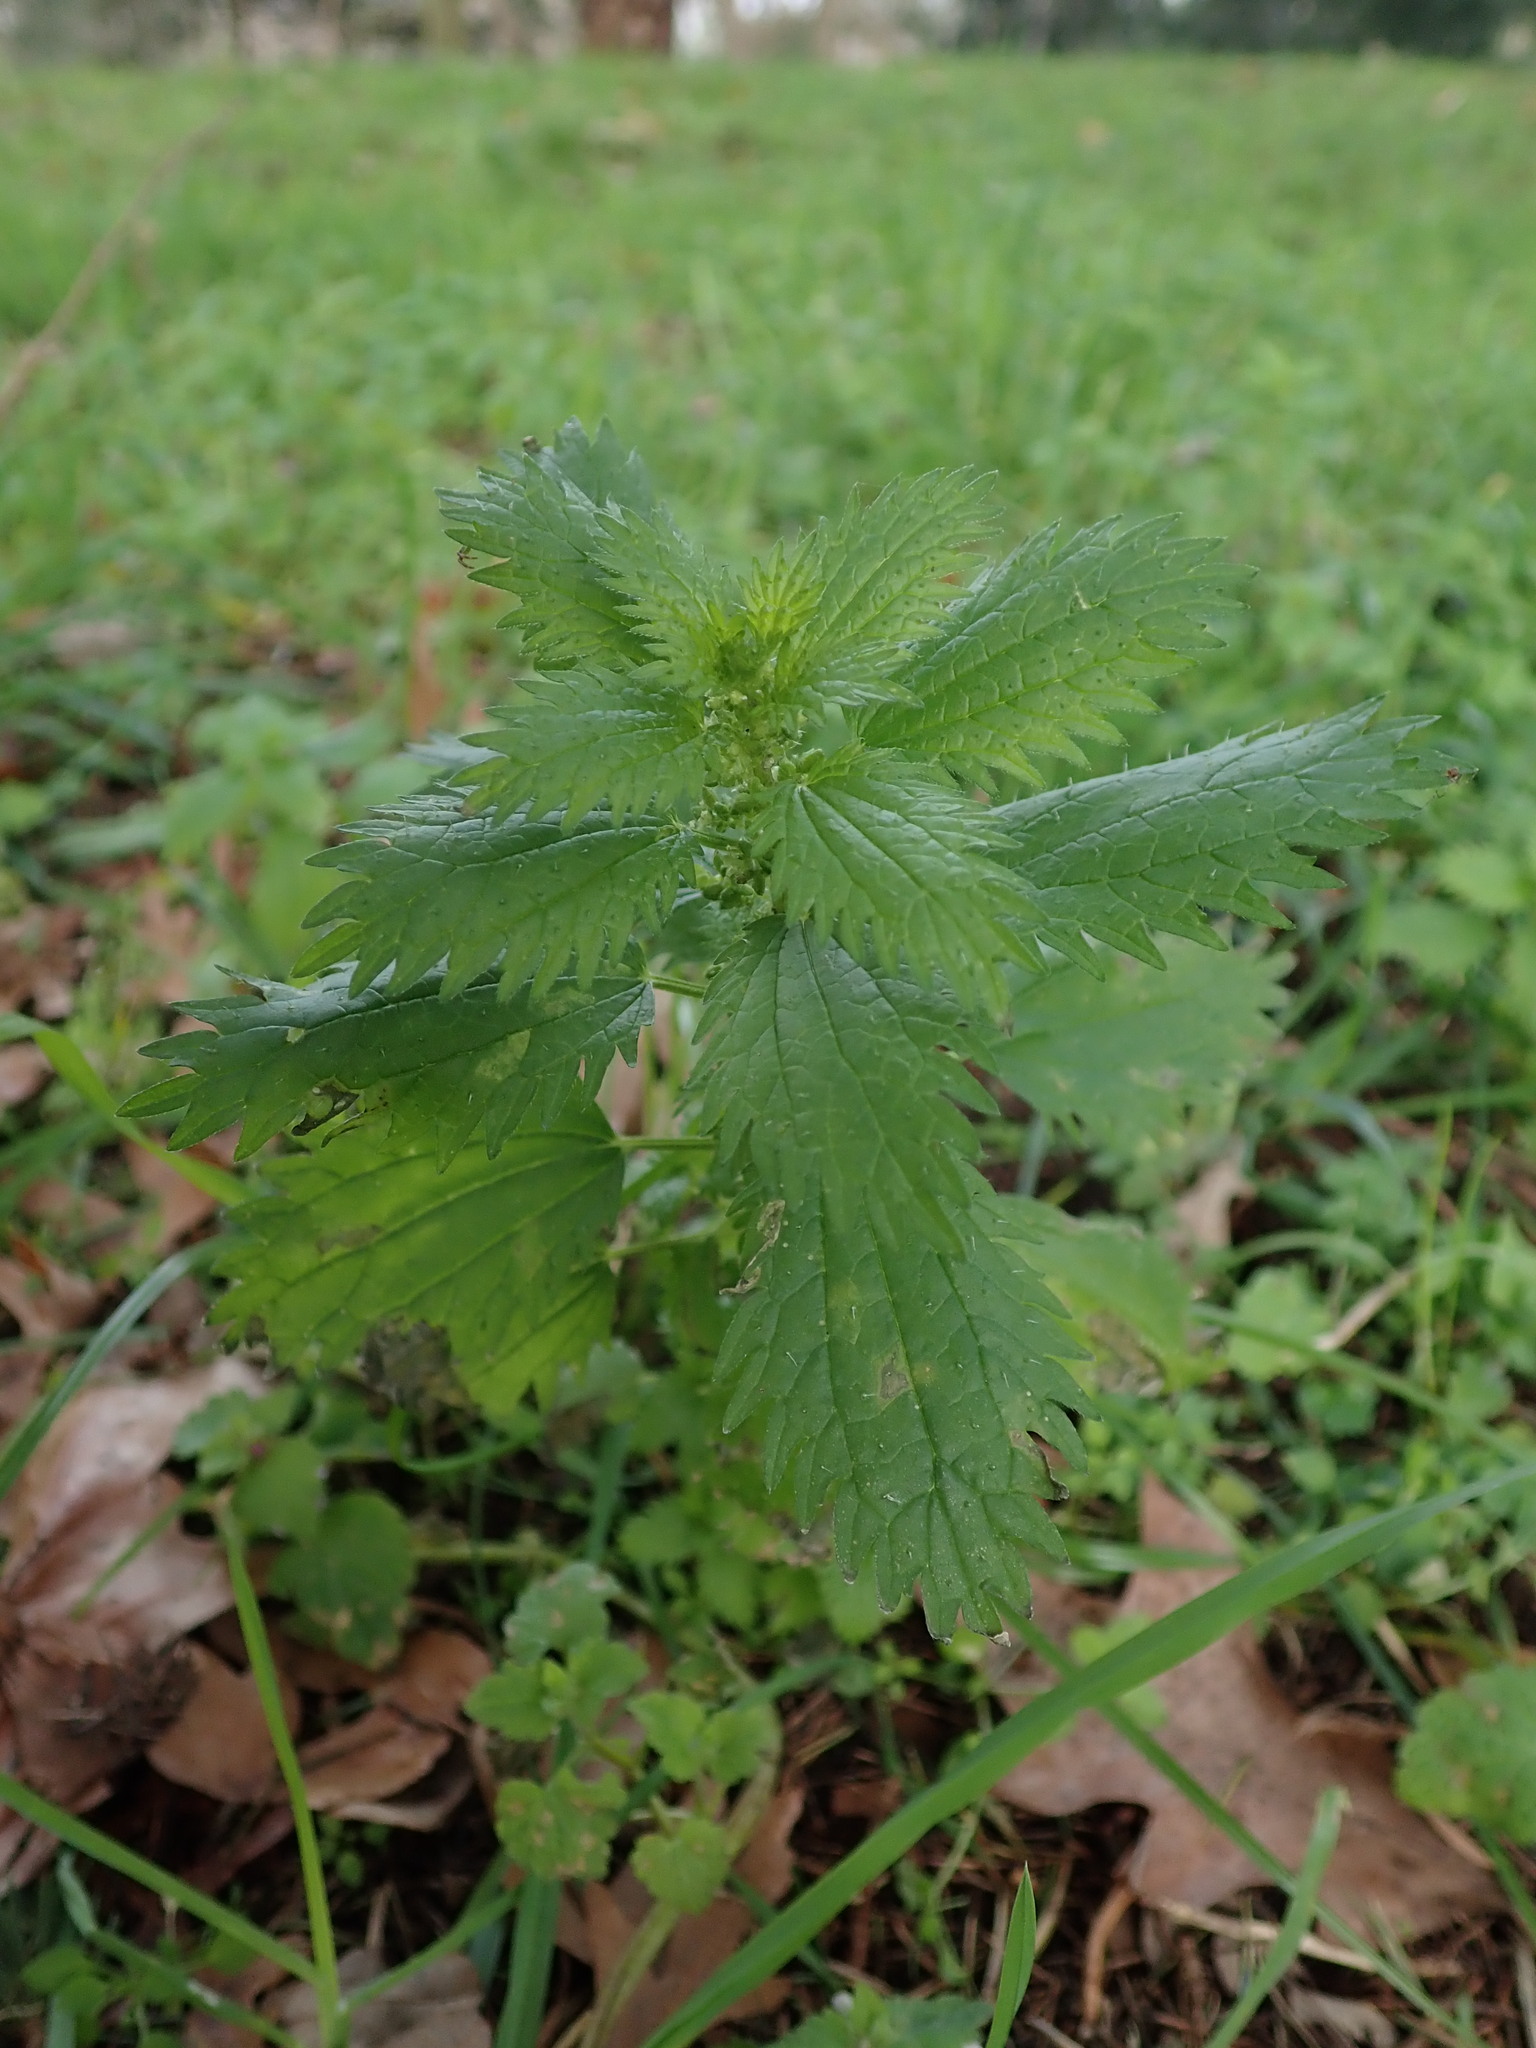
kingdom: Plantae
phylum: Tracheophyta
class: Magnoliopsida
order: Rosales
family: Urticaceae
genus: Urtica
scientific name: Urtica urens
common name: Dwarf nettle
